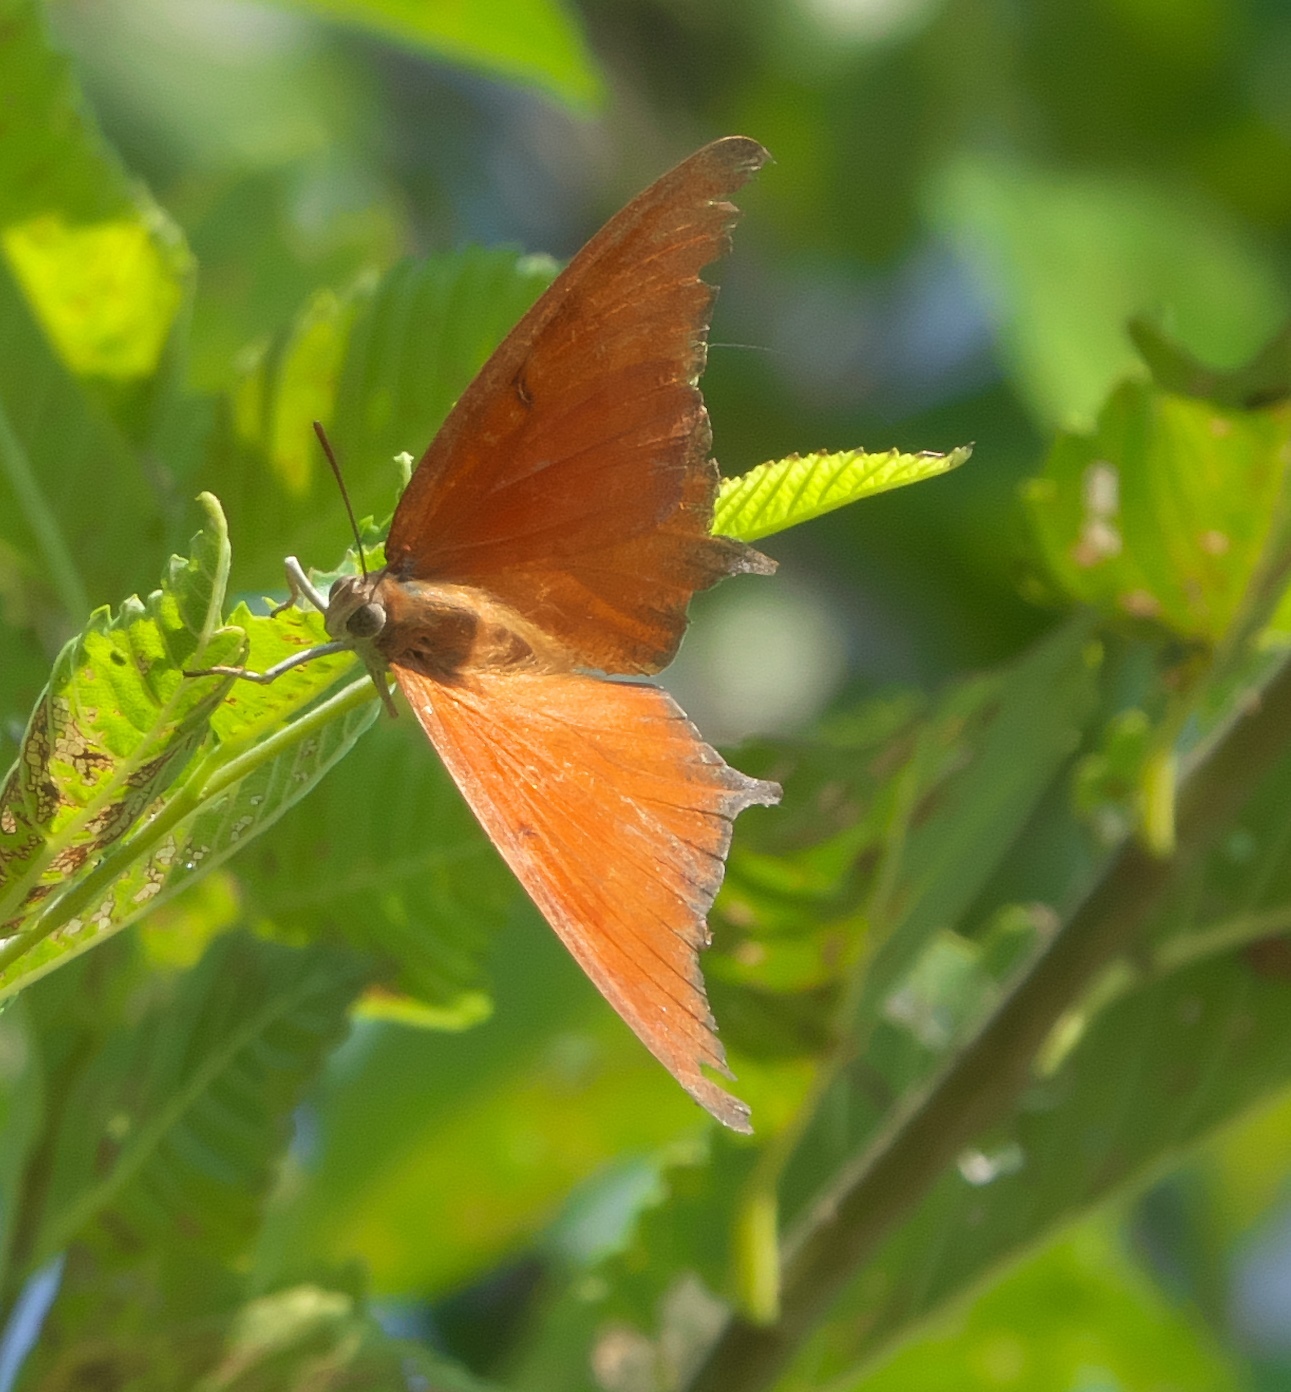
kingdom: Animalia
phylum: Arthropoda
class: Insecta
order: Lepidoptera
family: Nymphalidae
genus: Anaea
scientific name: Anaea andria
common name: Goatweed leafwing
